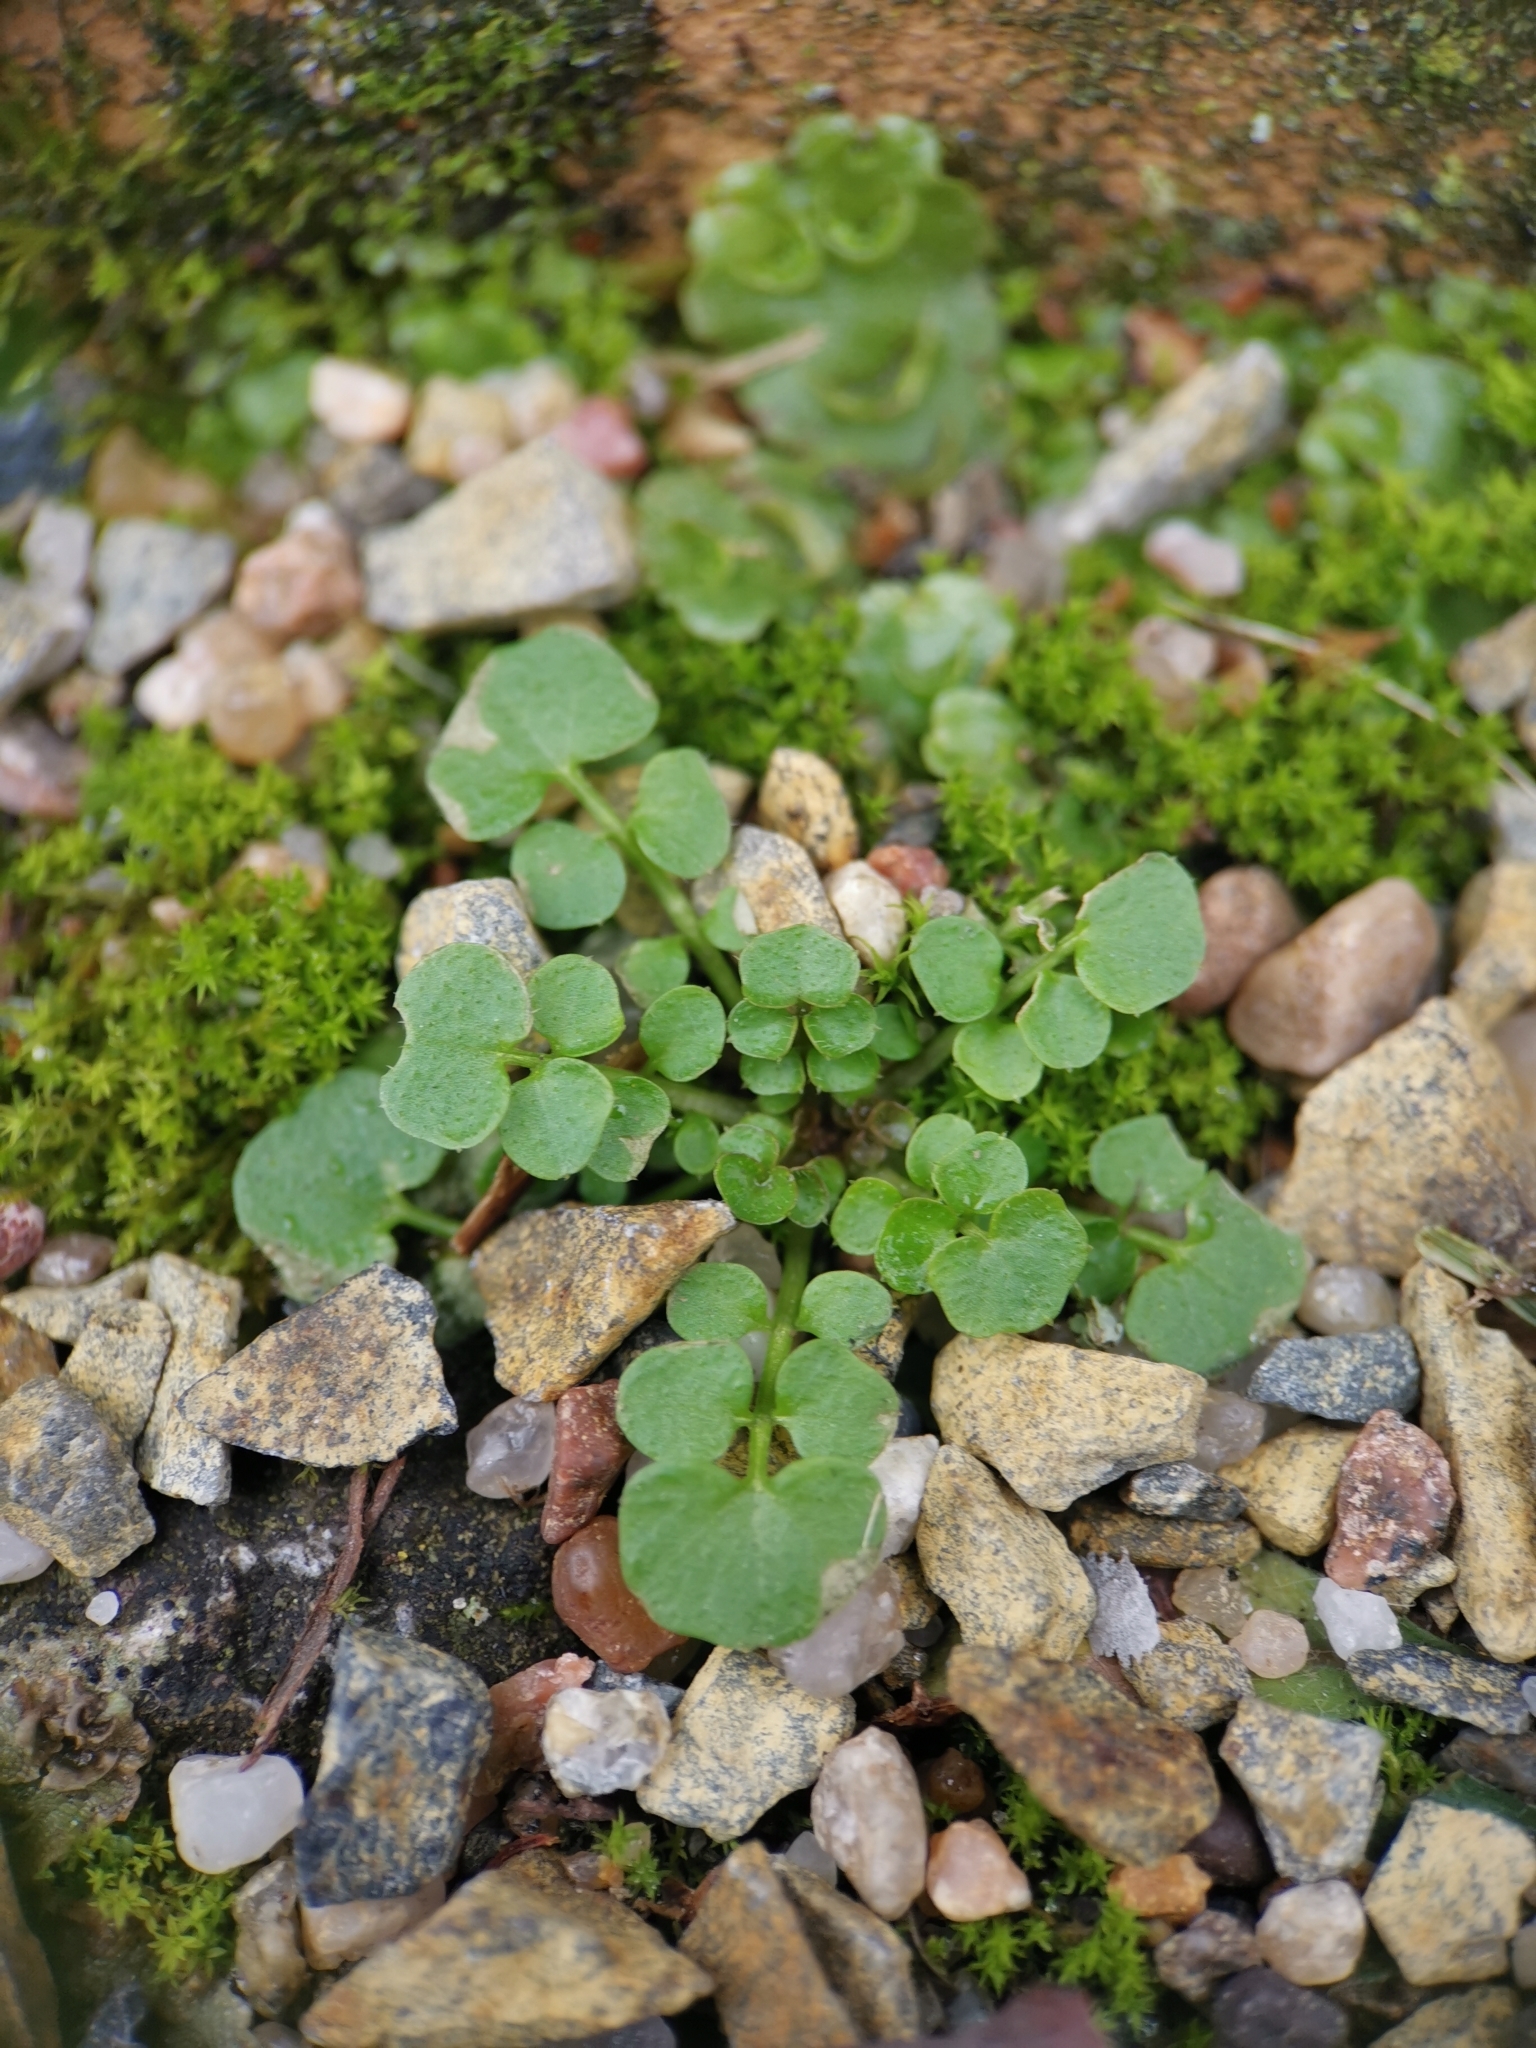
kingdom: Plantae
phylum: Tracheophyta
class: Magnoliopsida
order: Brassicales
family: Brassicaceae
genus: Cardamine
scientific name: Cardamine hirsuta
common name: Hairy bittercress
